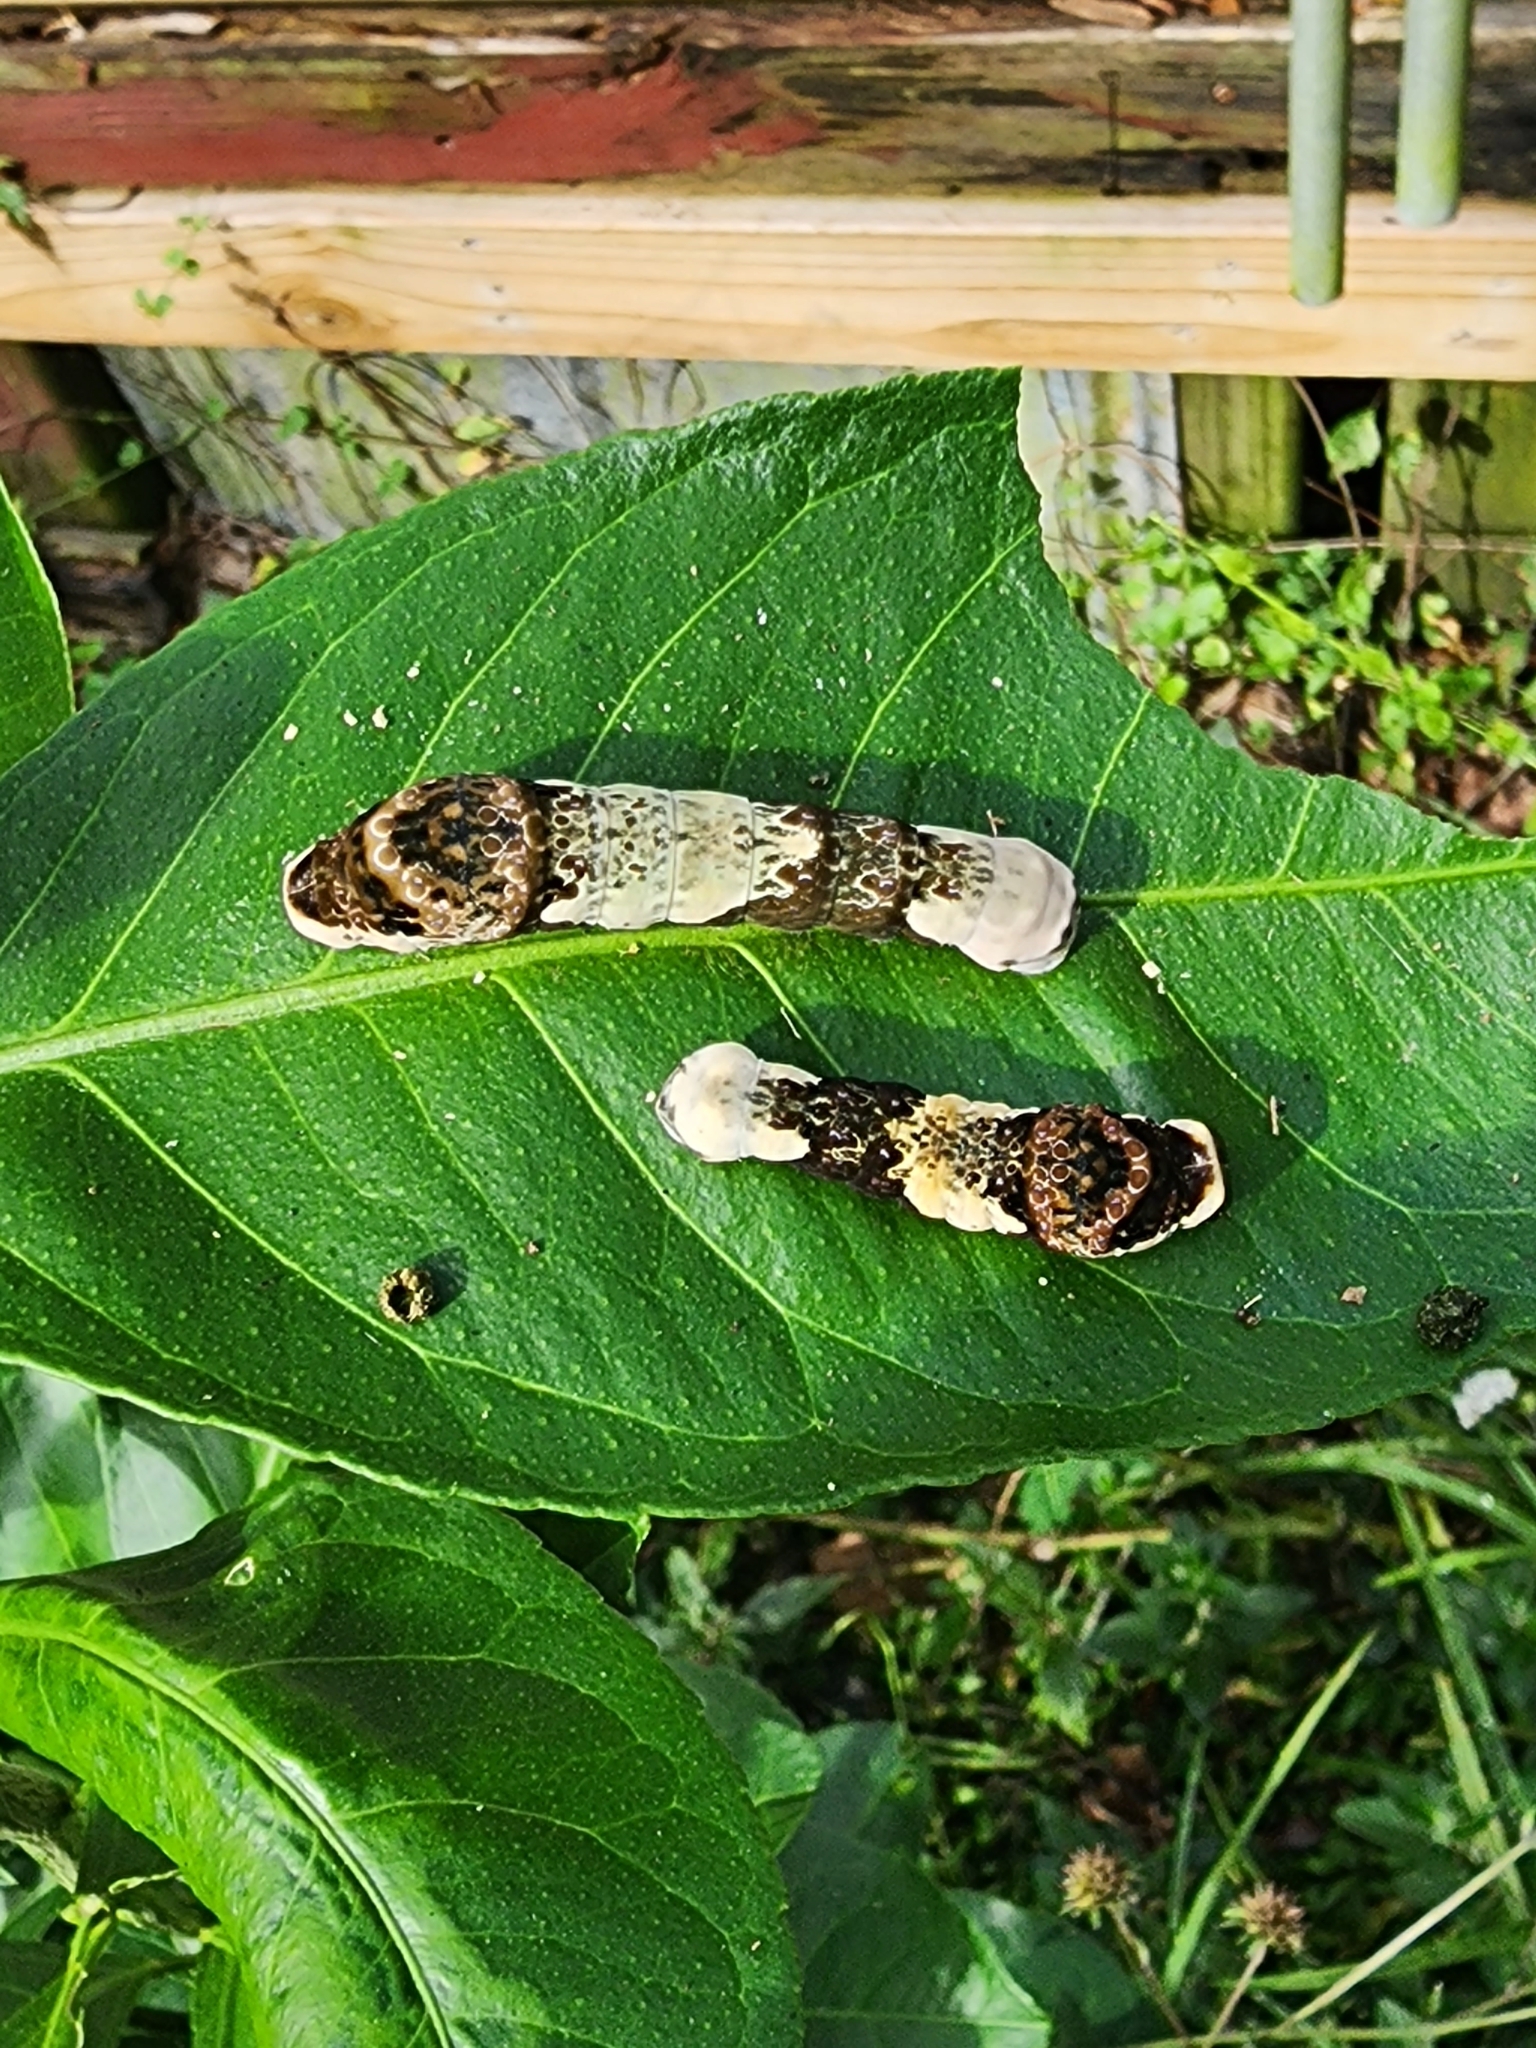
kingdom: Animalia
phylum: Arthropoda
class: Insecta
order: Lepidoptera
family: Papilionidae
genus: Papilio
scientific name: Papilio cresphontes
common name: Giant swallowtail
